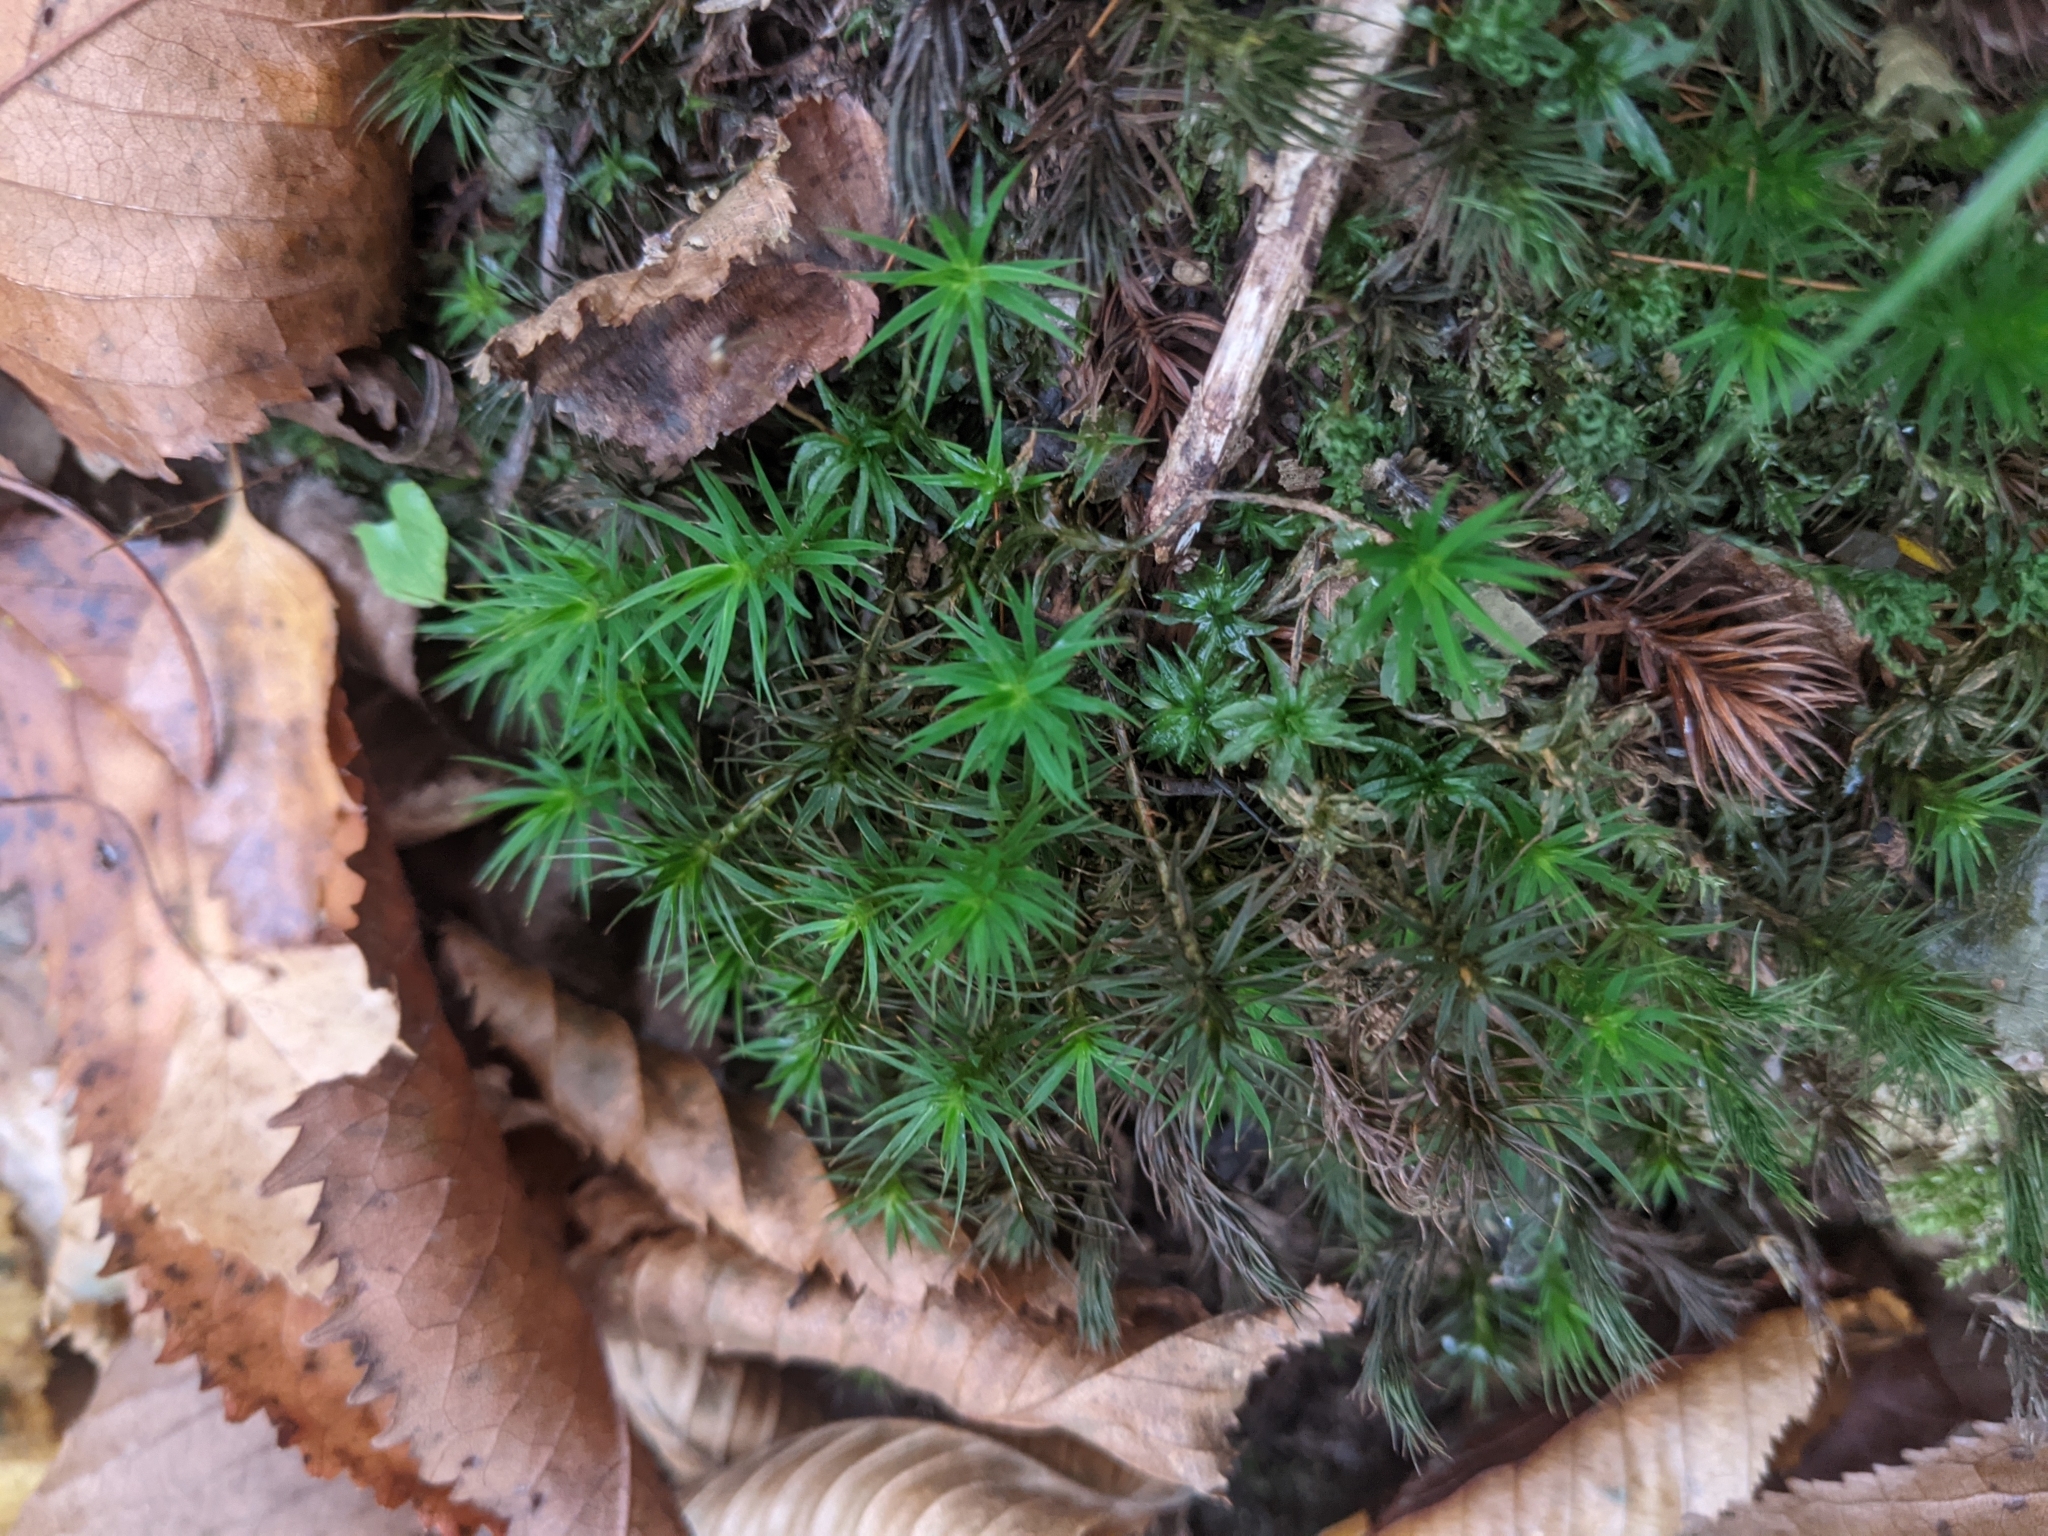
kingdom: Plantae
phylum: Bryophyta
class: Polytrichopsida
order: Polytrichales
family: Polytrichaceae
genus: Atrichum
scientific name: Atrichum undulatum
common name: Common smoothcap
